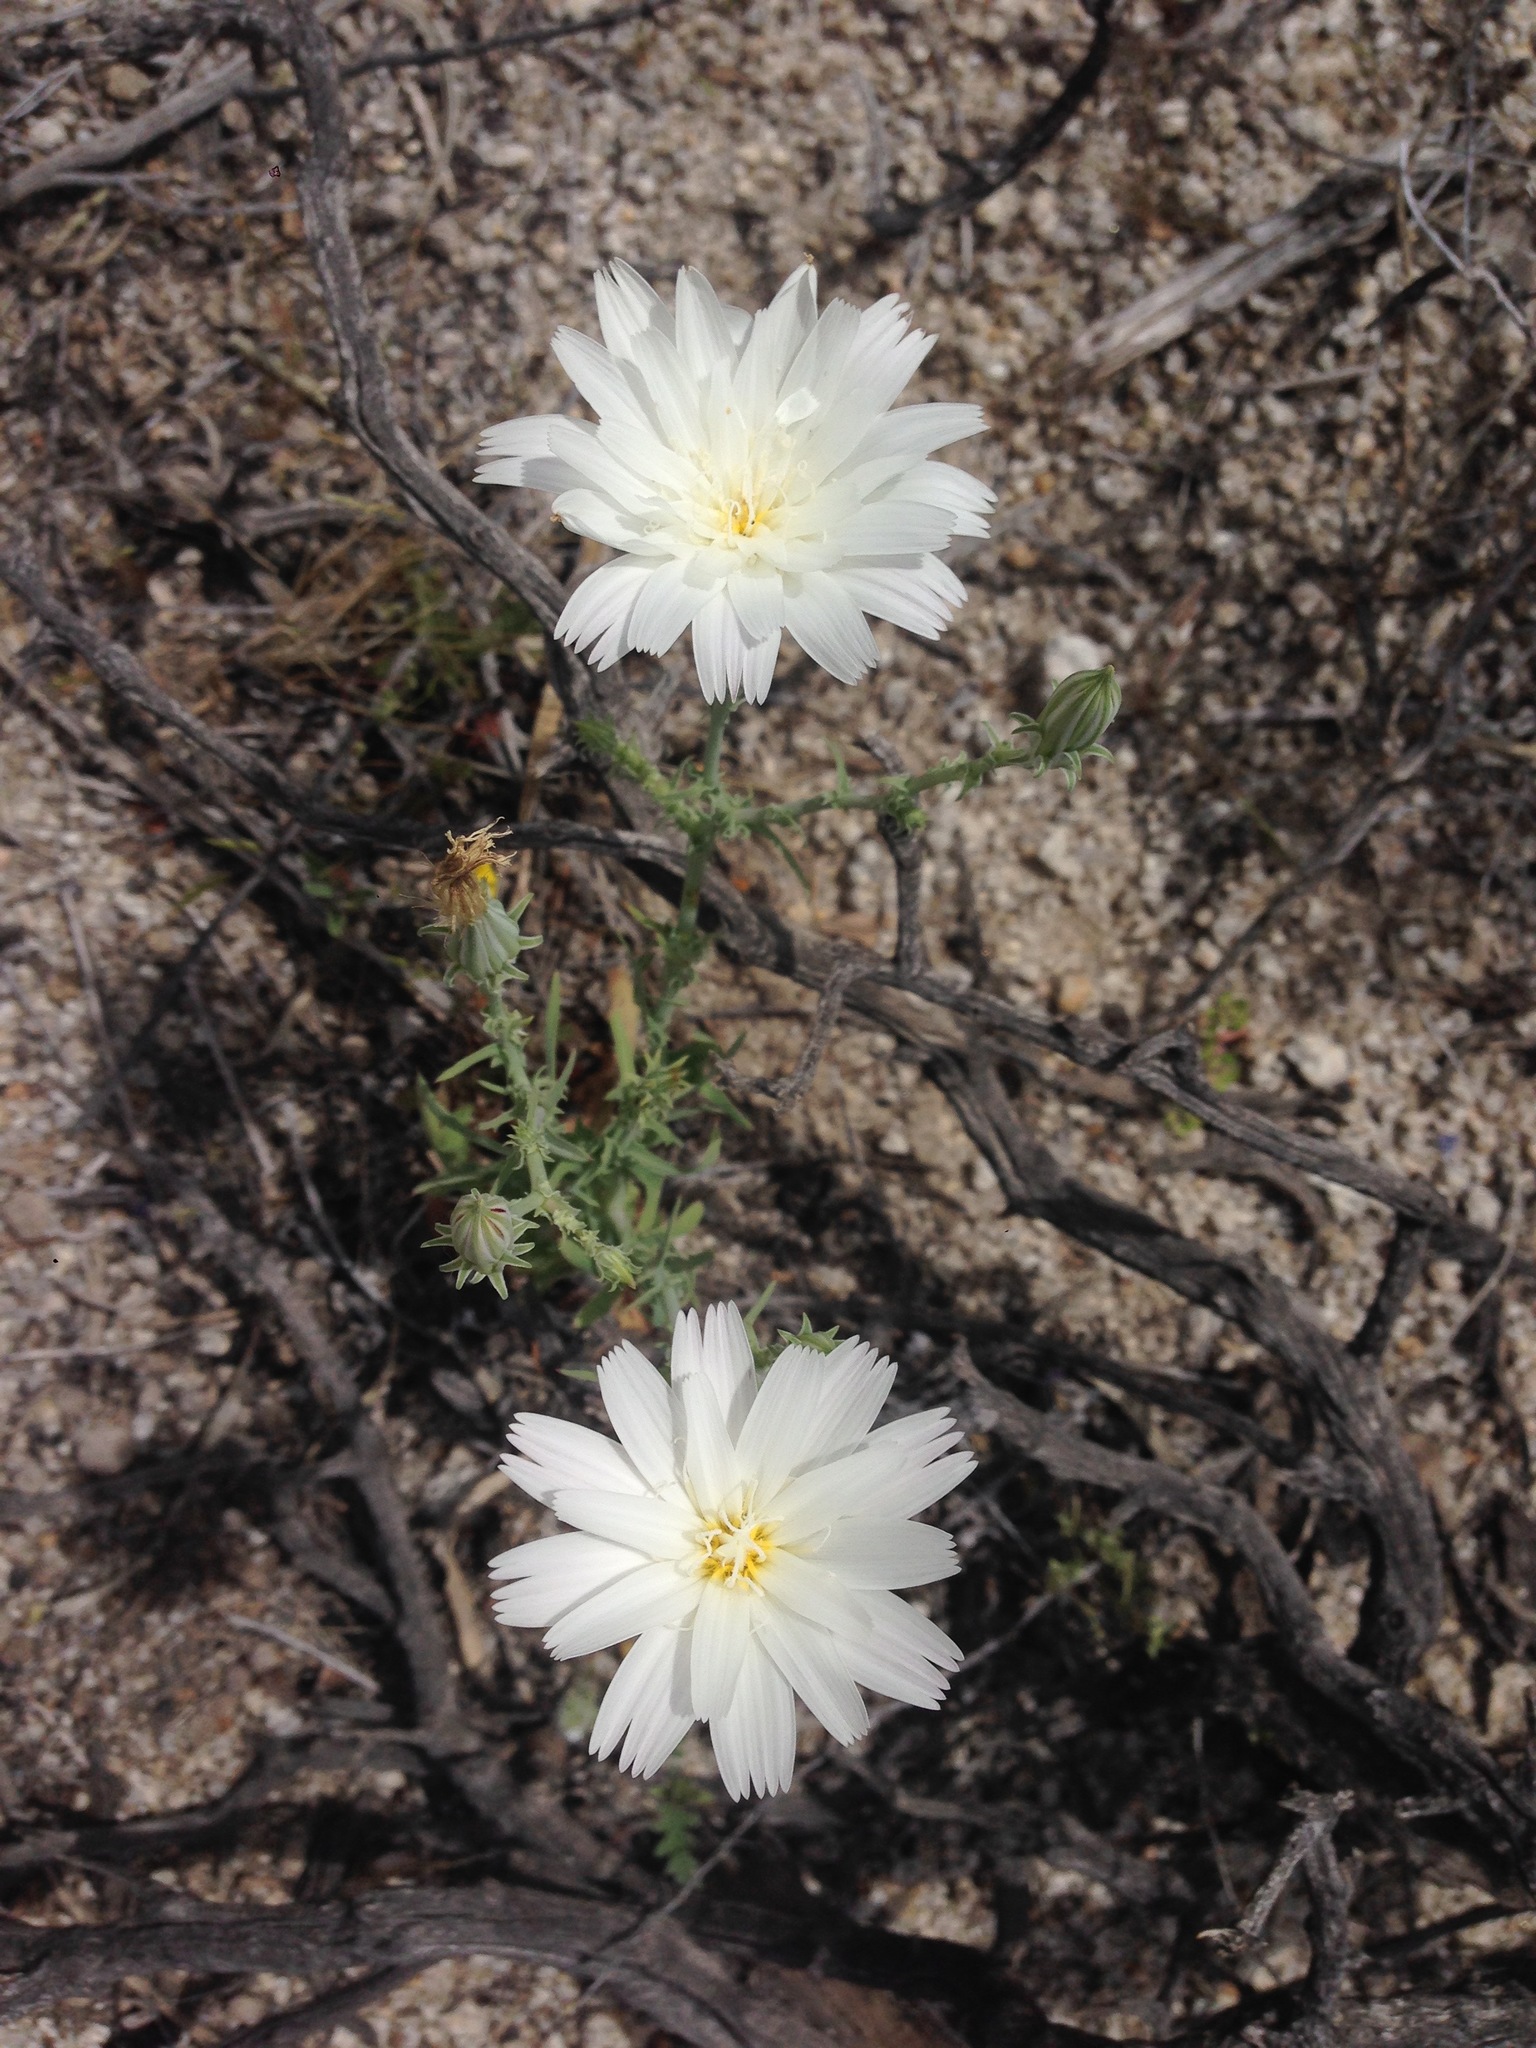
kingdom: Plantae
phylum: Tracheophyta
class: Magnoliopsida
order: Asterales
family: Asteraceae
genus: Rafinesquia
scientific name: Rafinesquia neomexicana
